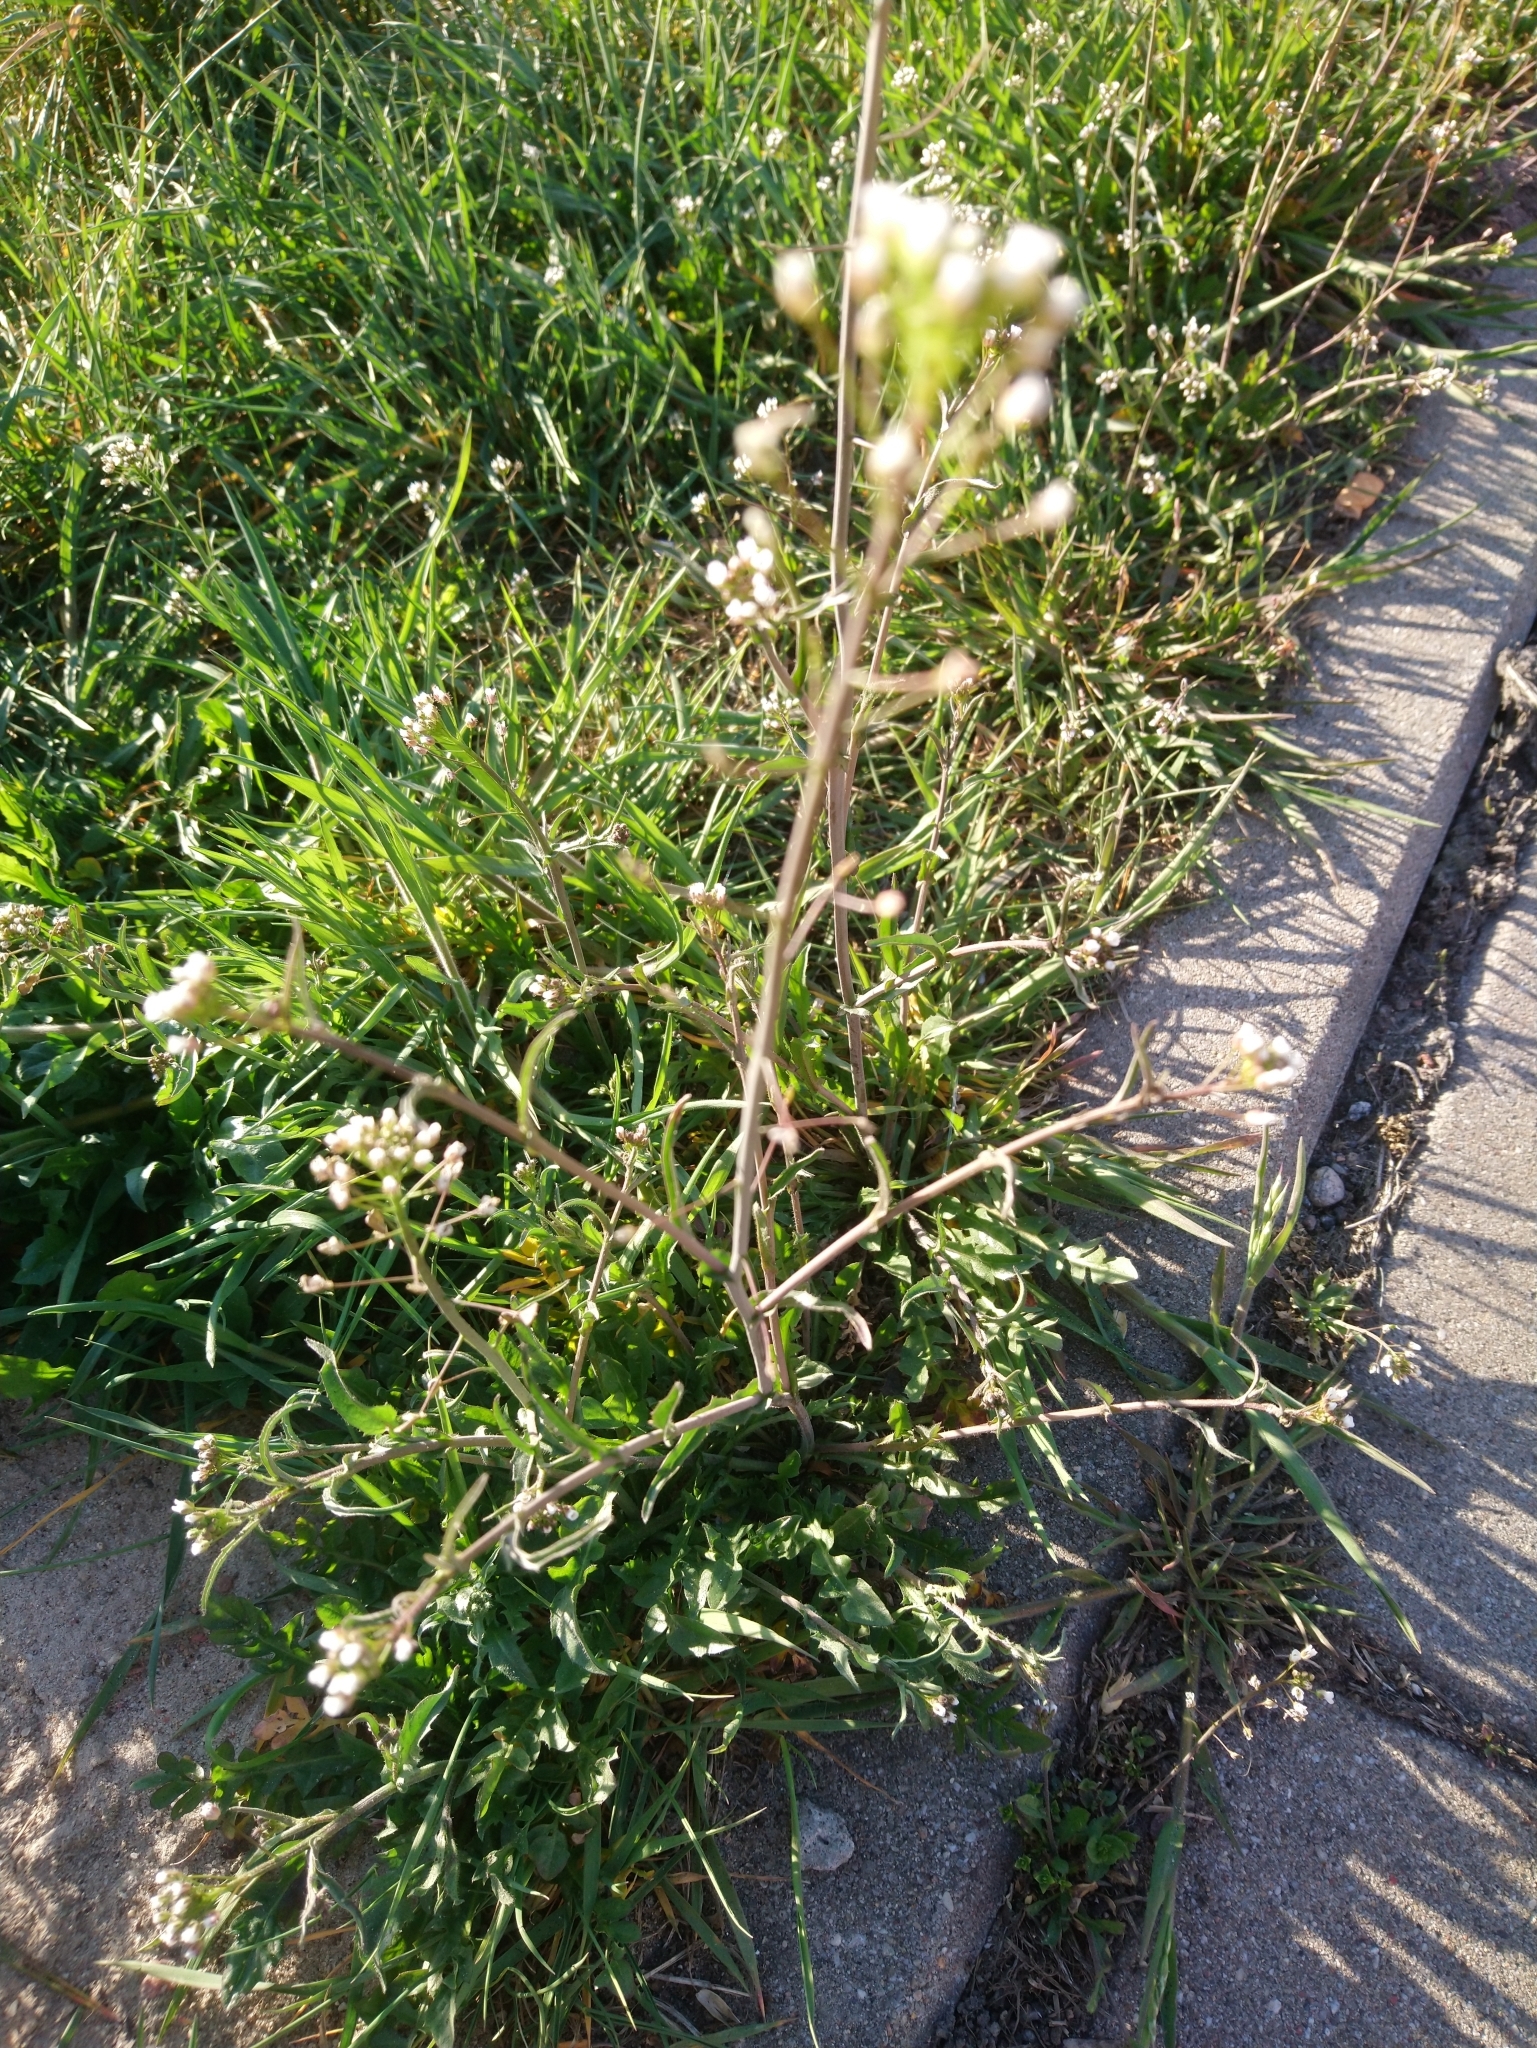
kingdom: Plantae
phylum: Tracheophyta
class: Magnoliopsida
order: Brassicales
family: Brassicaceae
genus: Capsella
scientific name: Capsella bursa-pastoris
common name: Shepherd's purse
